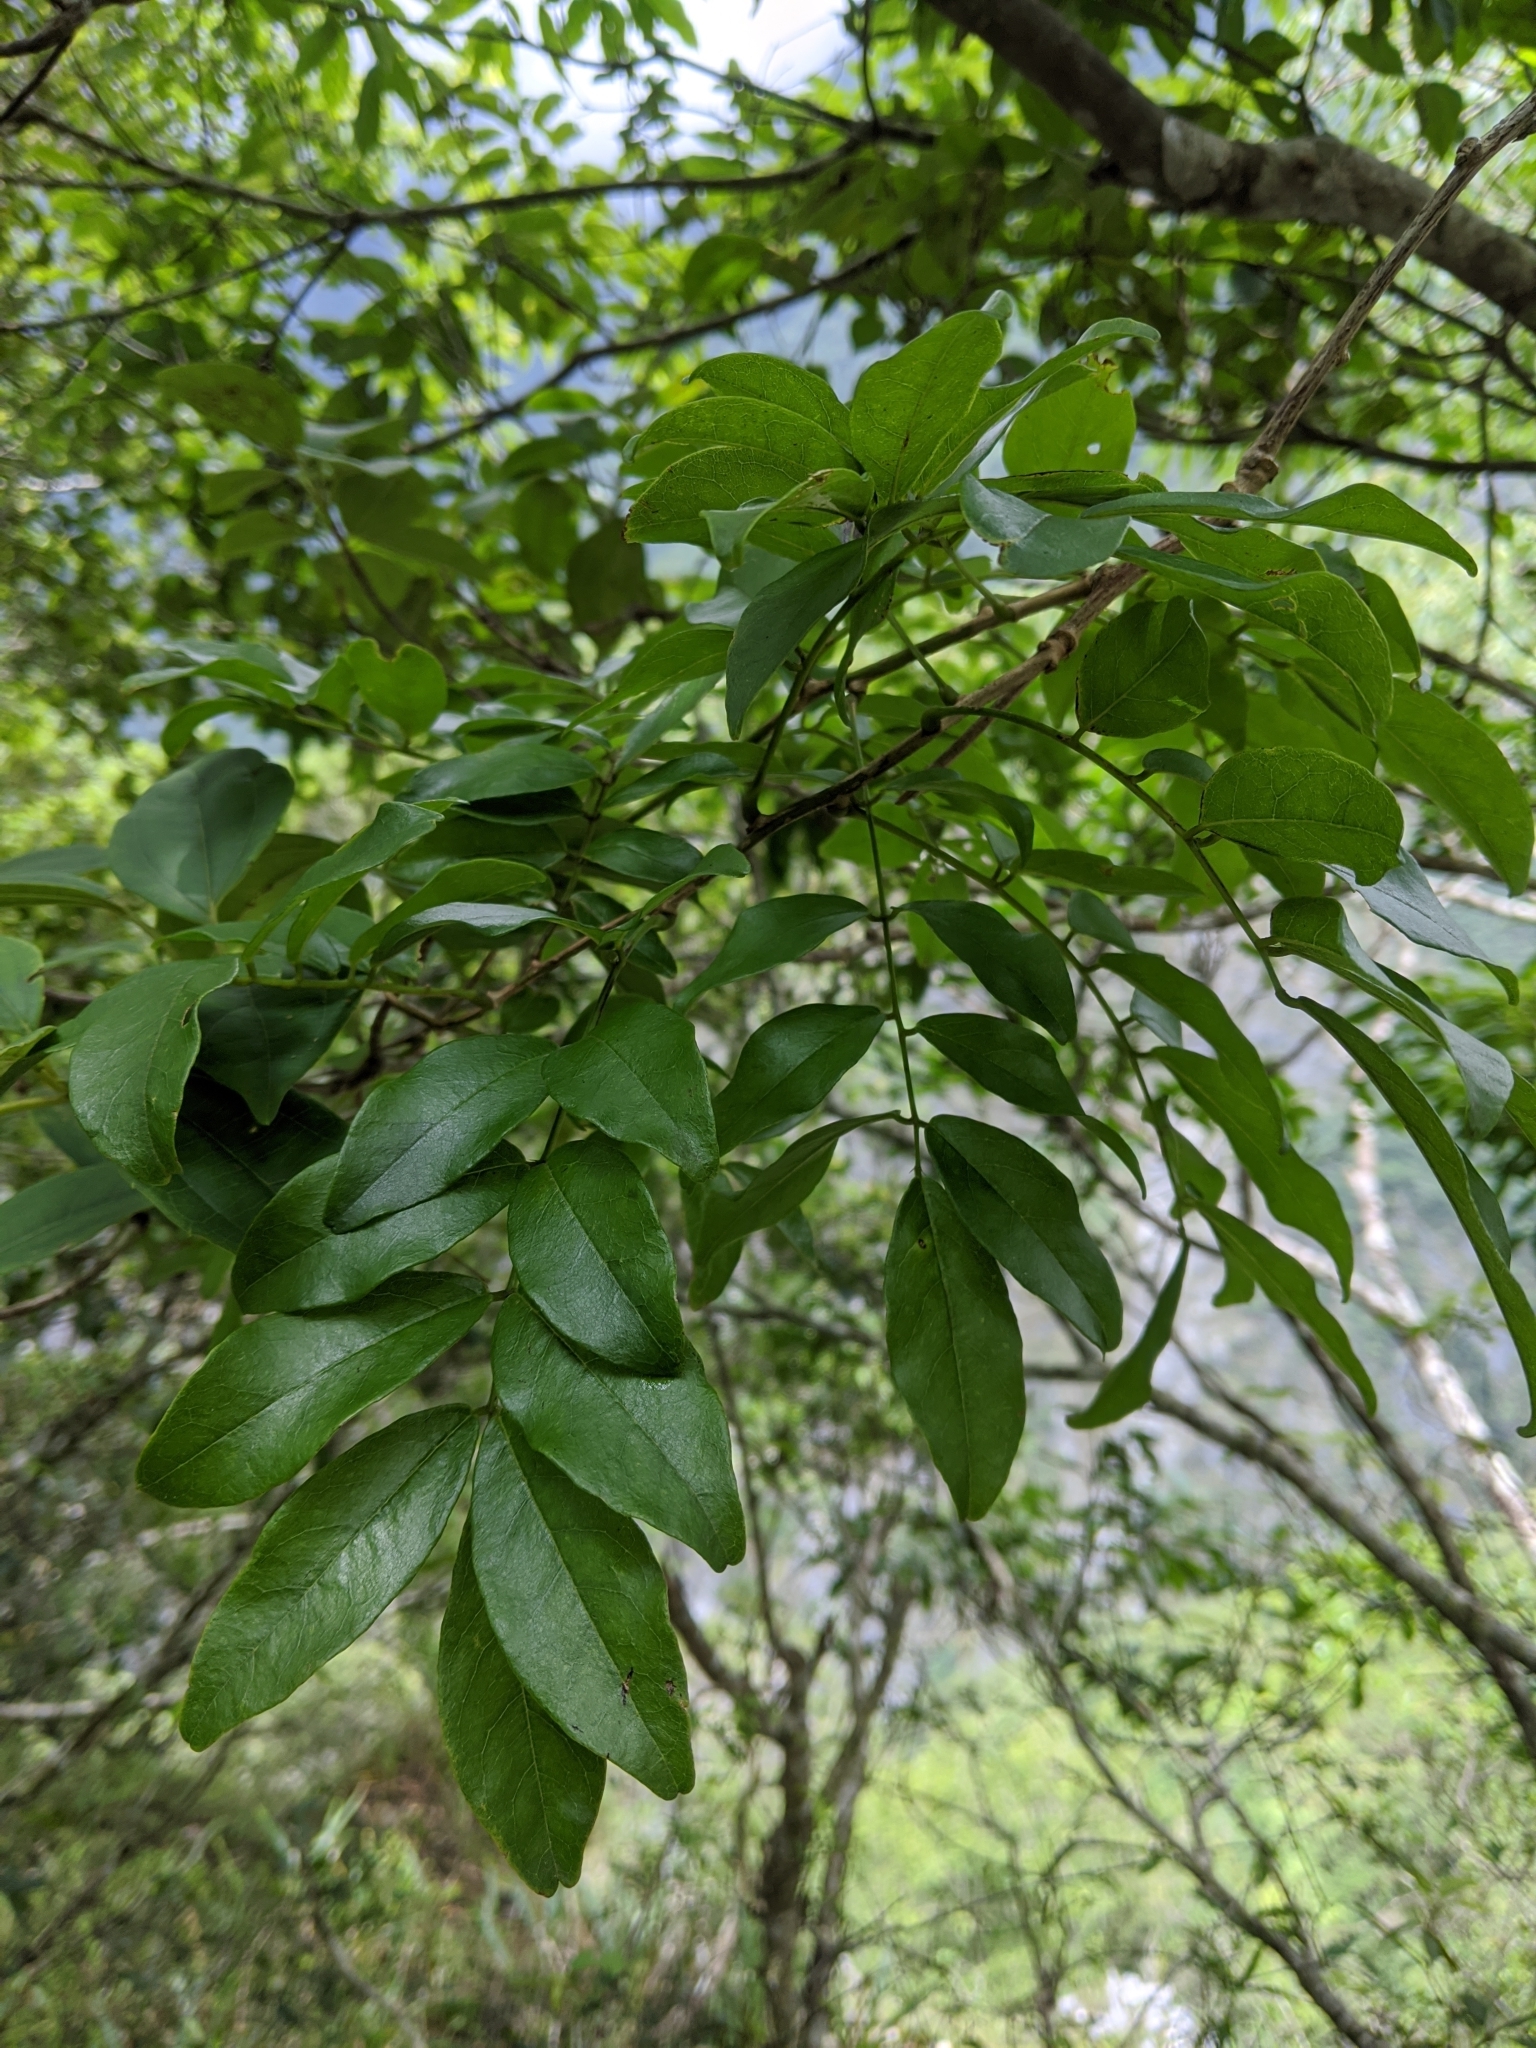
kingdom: Plantae
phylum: Tracheophyta
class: Magnoliopsida
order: Fabales
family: Fabaceae
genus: Wisteriopsis
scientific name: Wisteriopsis reticulata
